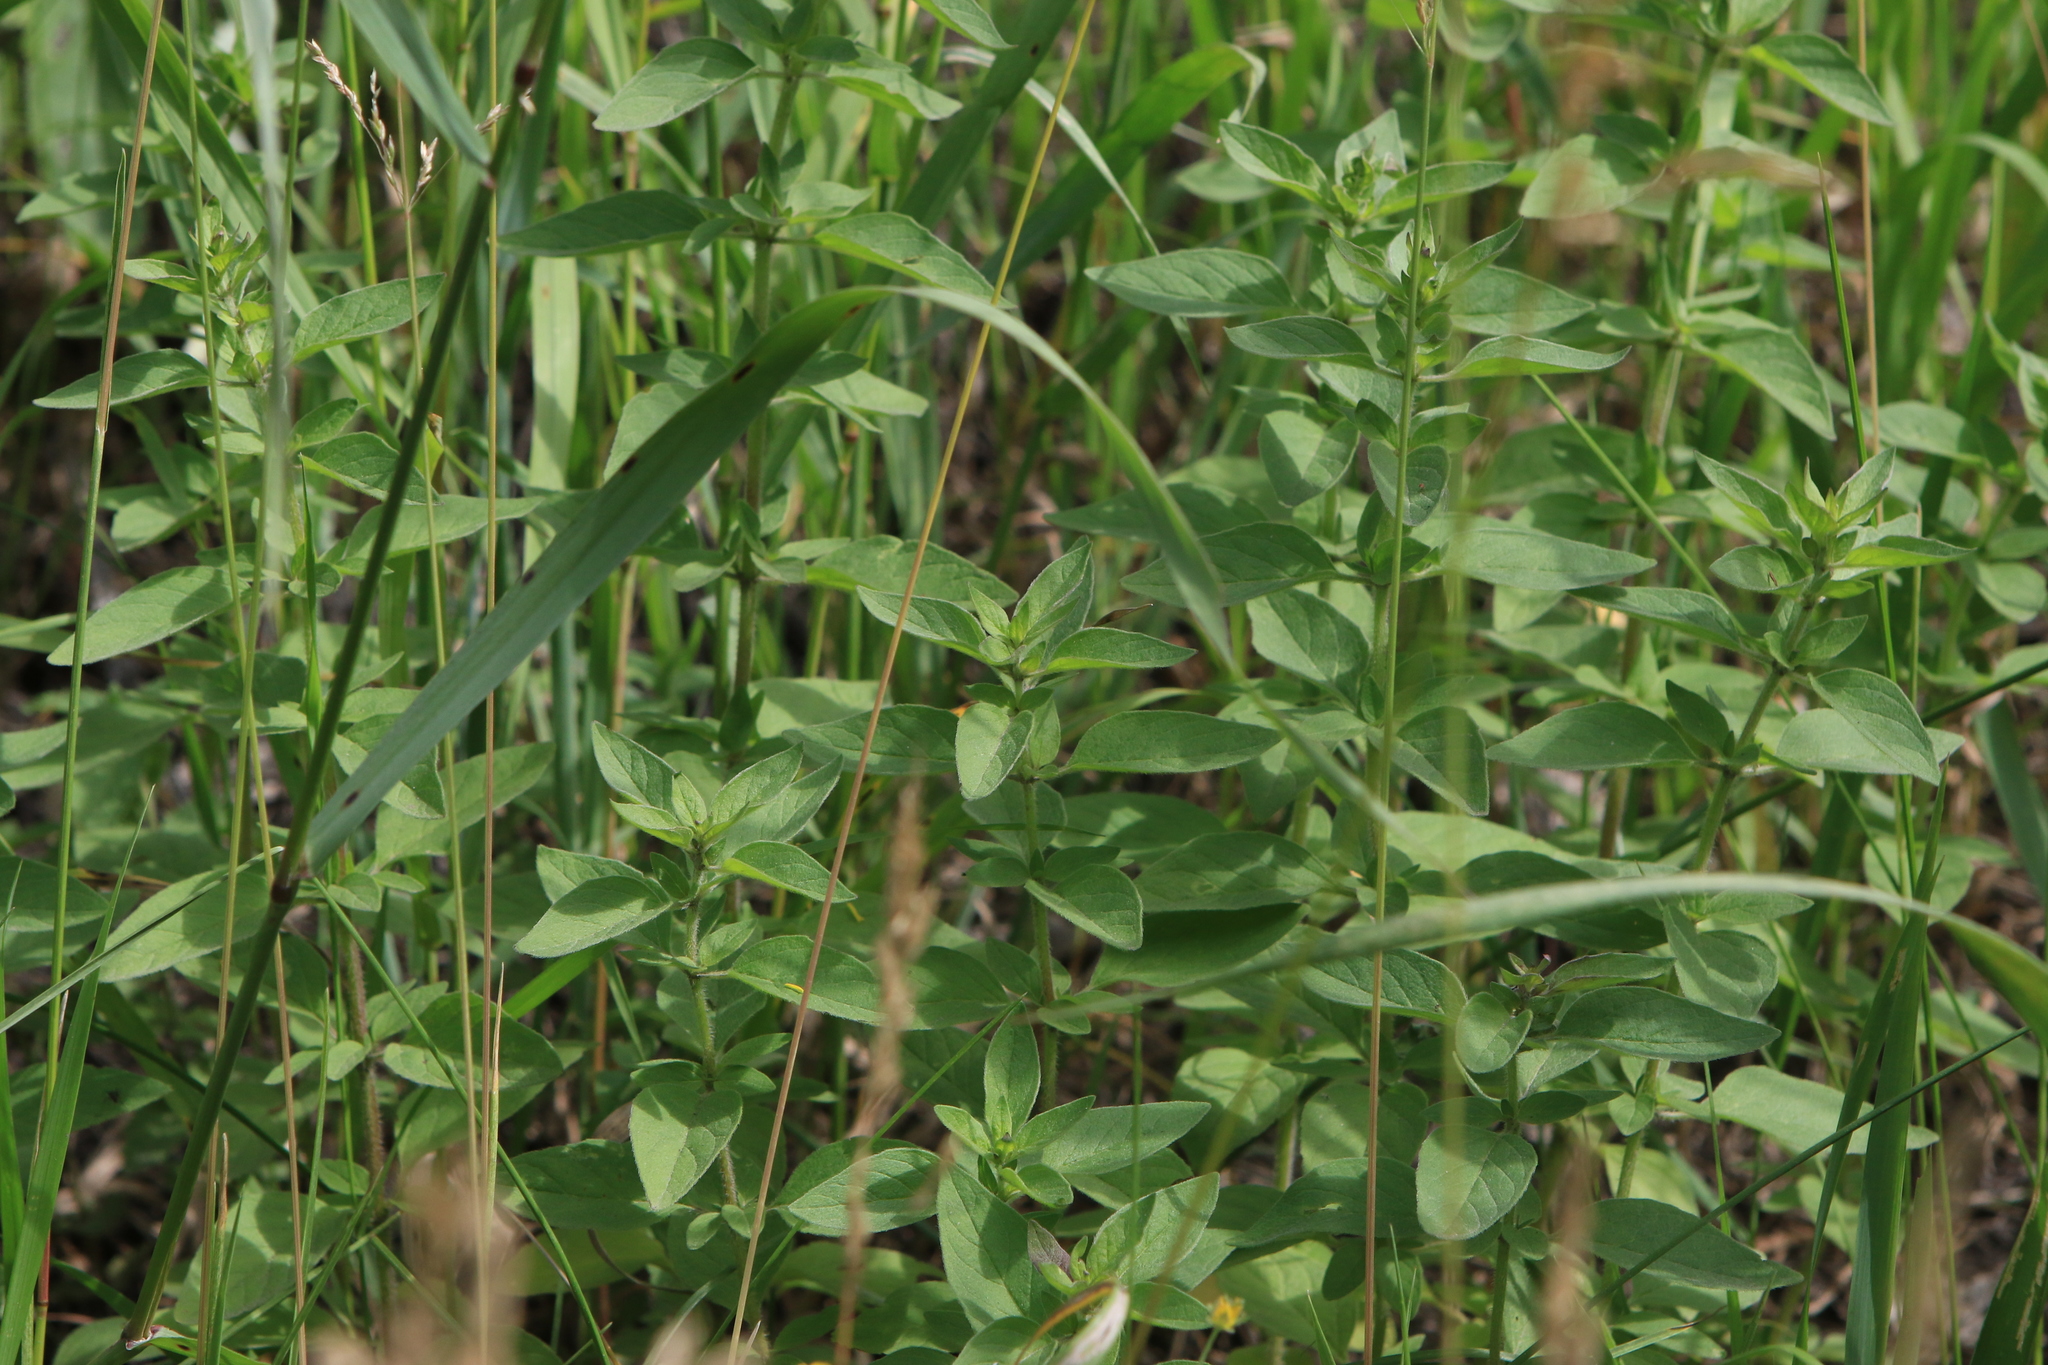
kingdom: Plantae
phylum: Tracheophyta
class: Magnoliopsida
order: Lamiales
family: Lamiaceae
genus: Origanum
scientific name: Origanum vulgare
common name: Wild marjoram
